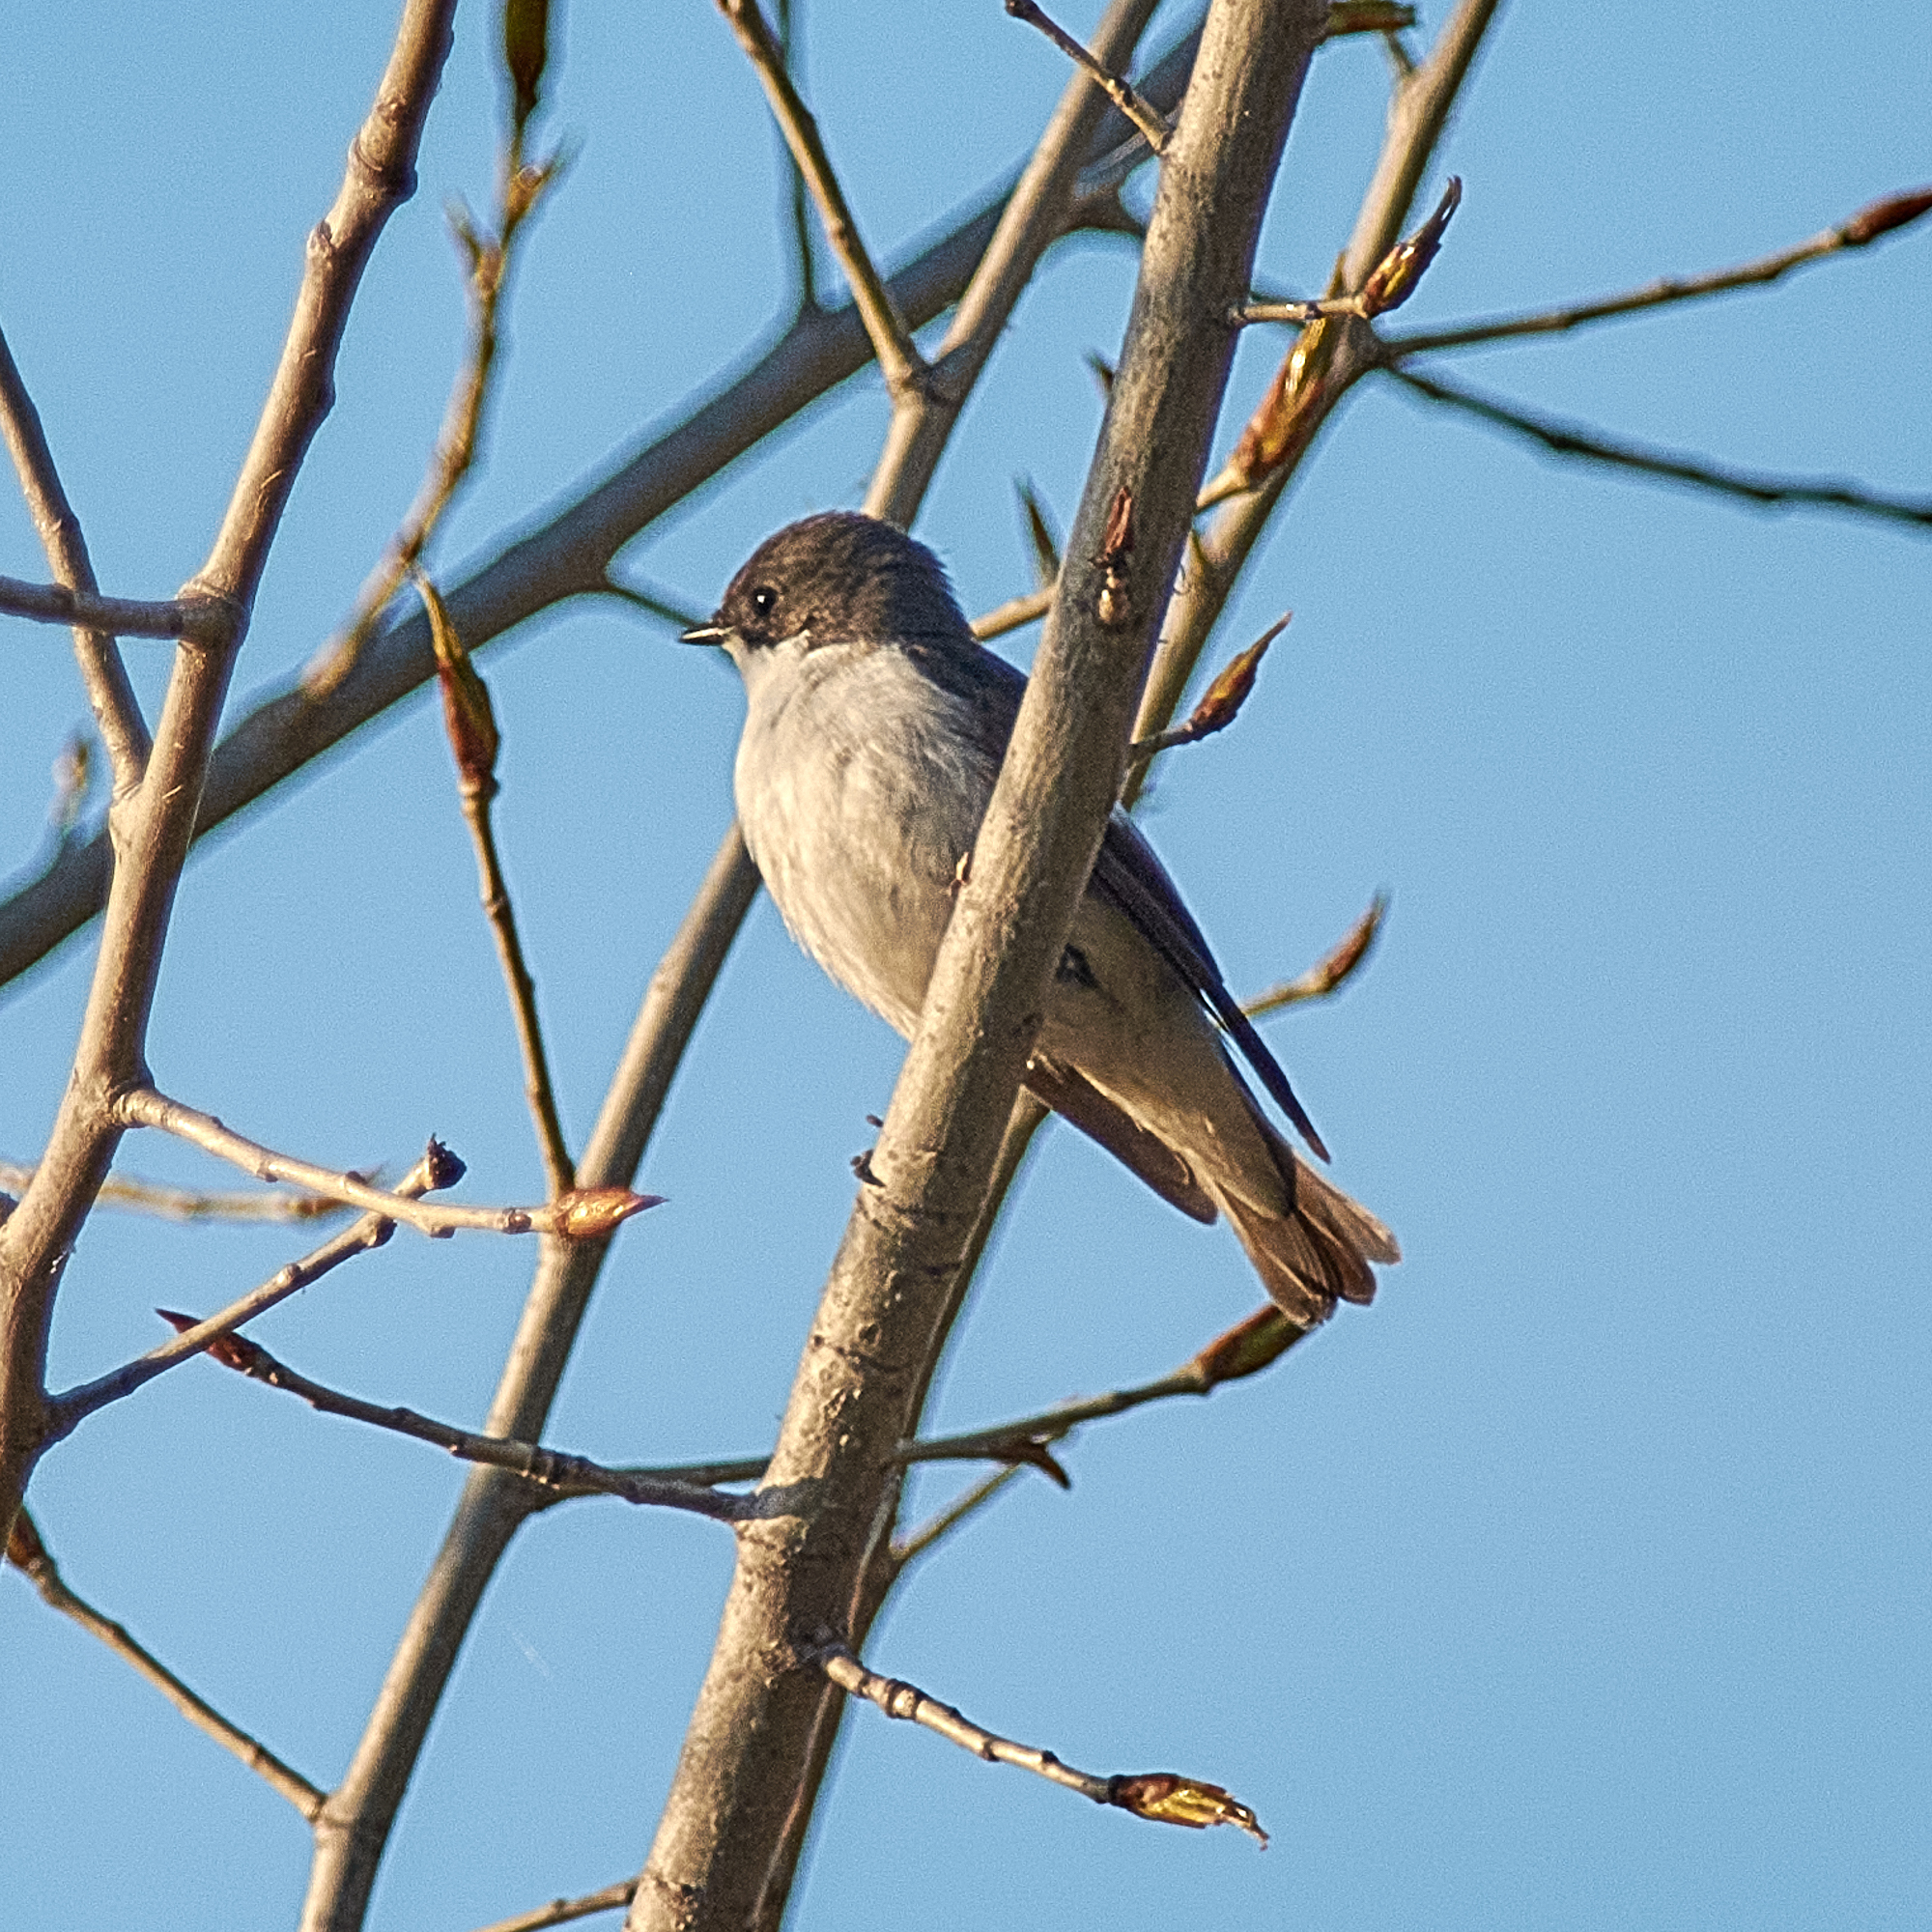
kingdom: Animalia
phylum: Chordata
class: Aves
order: Passeriformes
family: Muscicapidae
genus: Ficedula
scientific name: Ficedula hypoleuca
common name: European pied flycatcher
